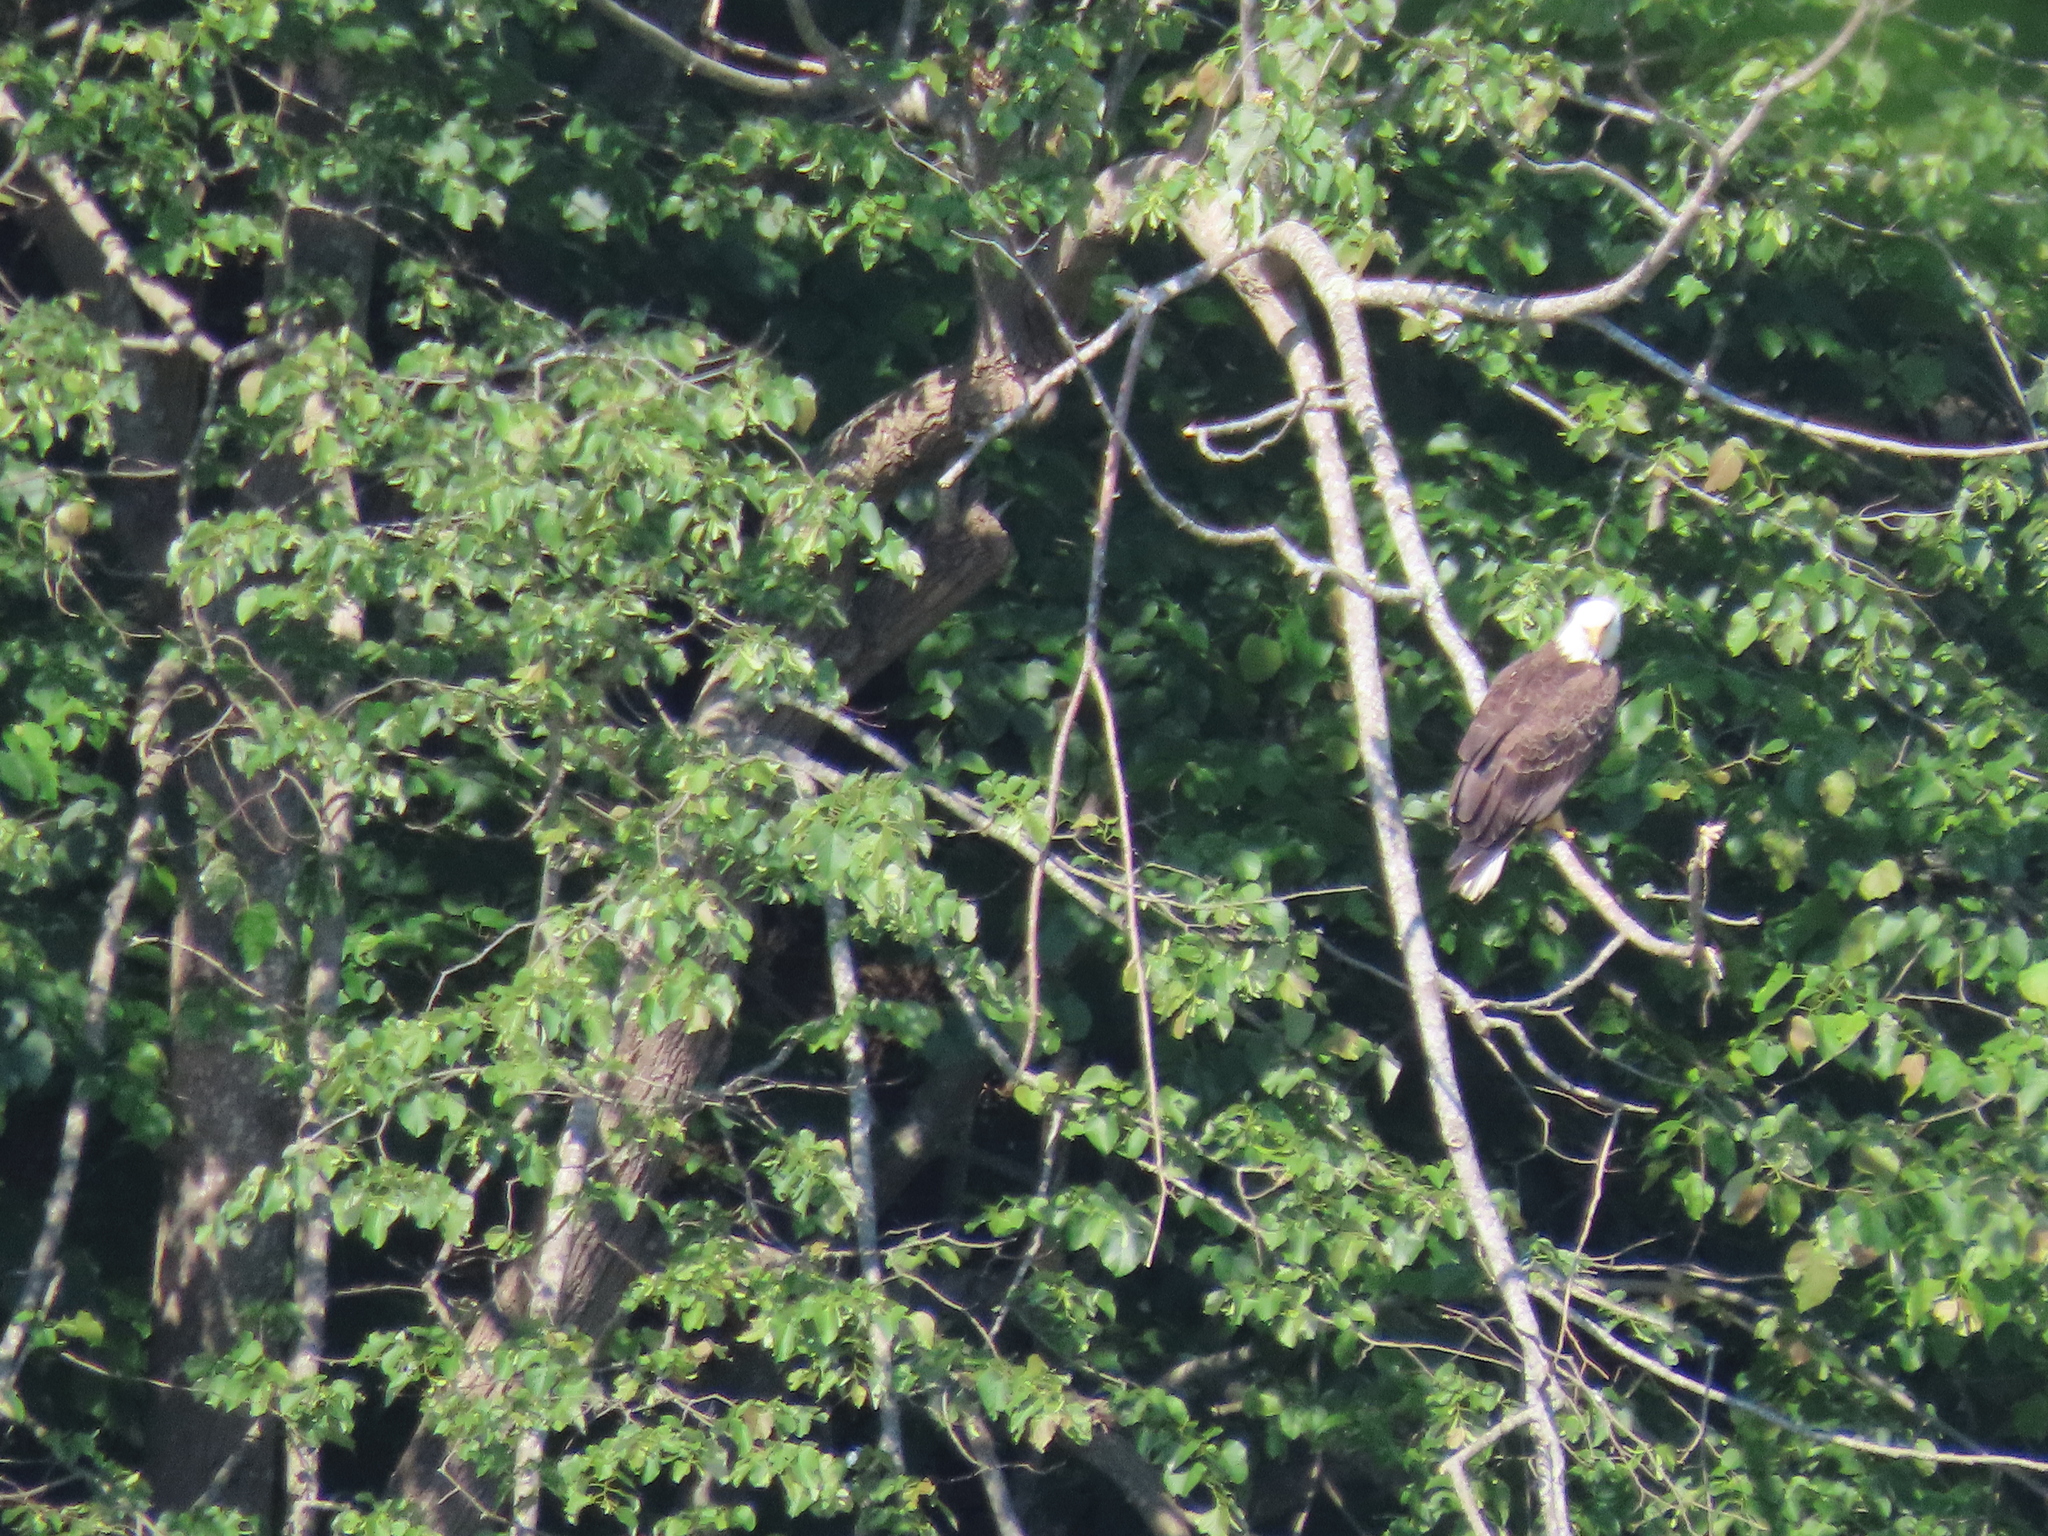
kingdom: Animalia
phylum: Chordata
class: Aves
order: Accipitriformes
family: Accipitridae
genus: Haliaeetus
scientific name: Haliaeetus leucocephalus
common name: Bald eagle
